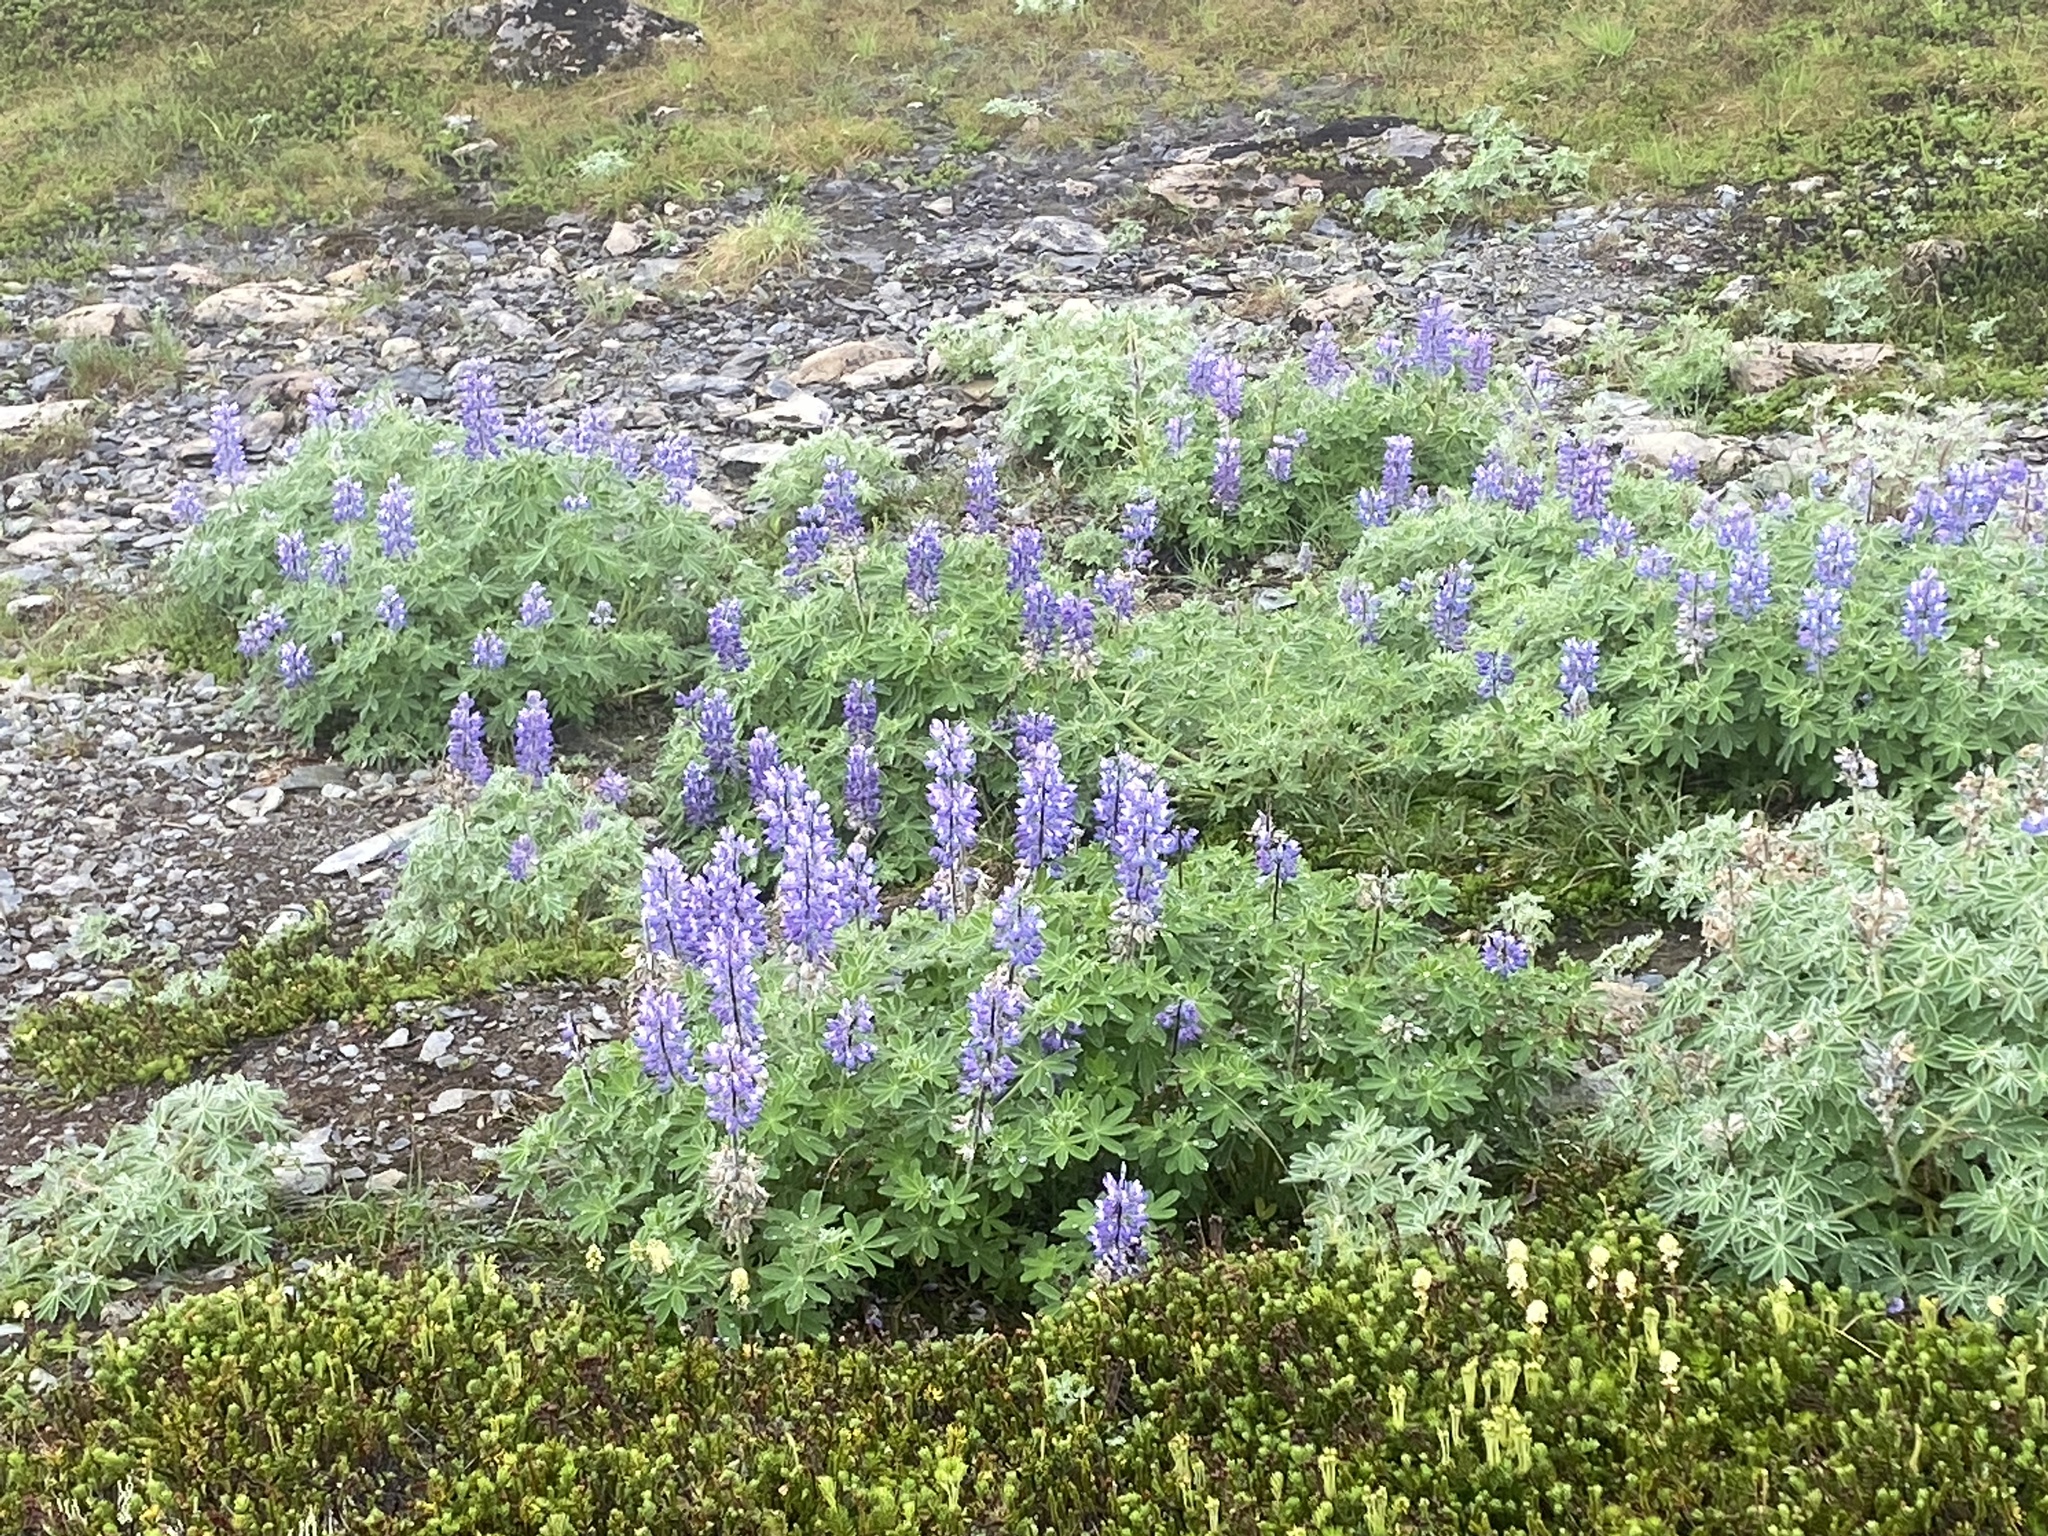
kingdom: Plantae
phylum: Tracheophyta
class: Magnoliopsida
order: Fabales
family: Fabaceae
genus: Lupinus
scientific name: Lupinus nootkatensis
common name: Nootka lupine
